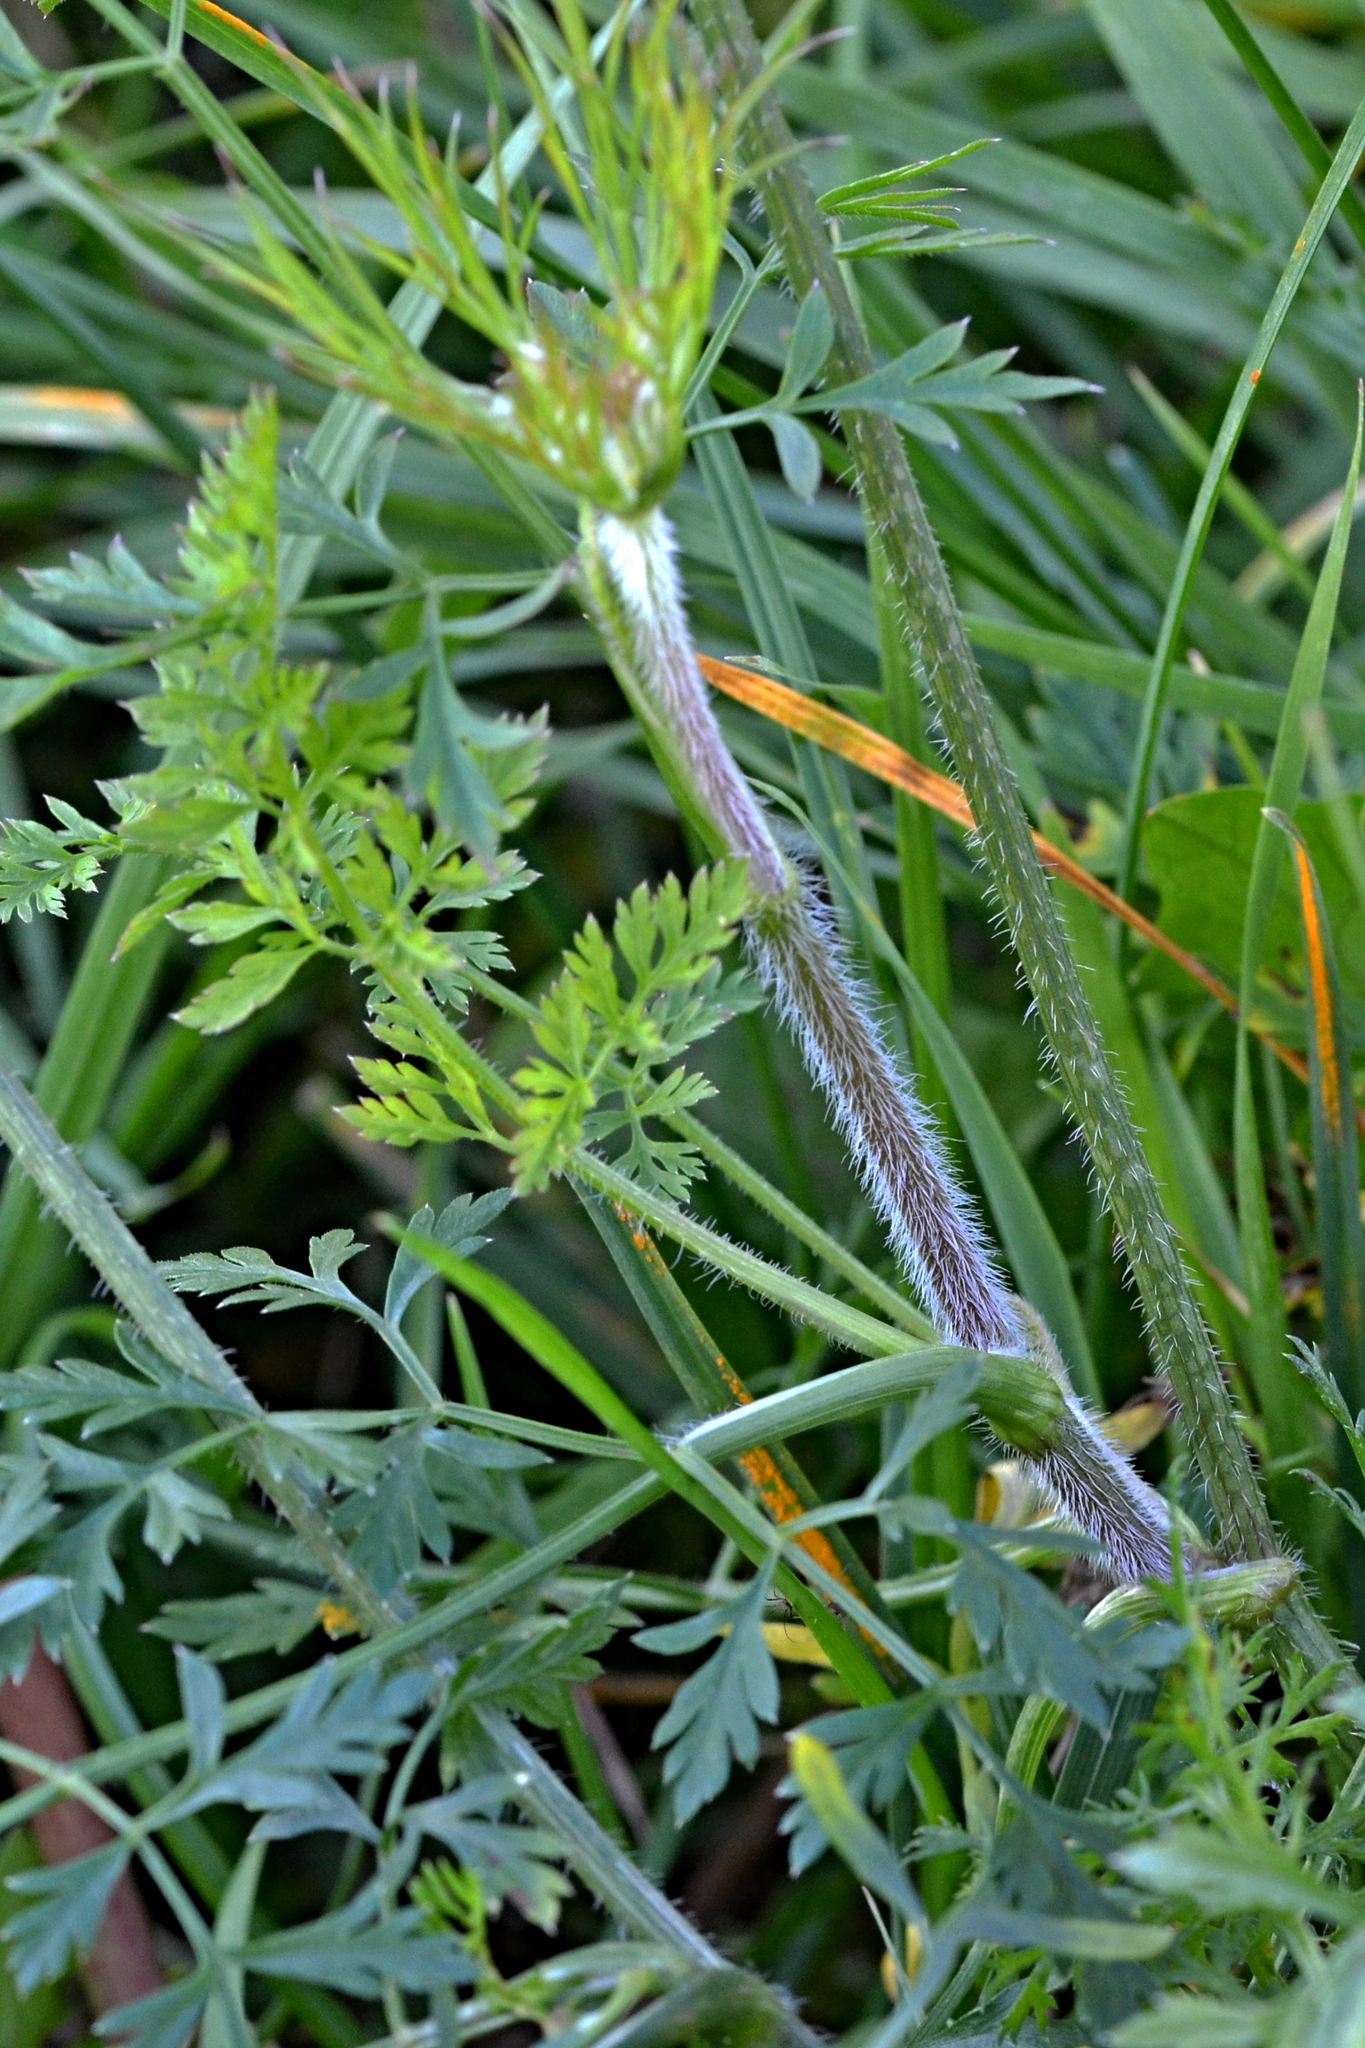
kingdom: Plantae
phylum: Tracheophyta
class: Magnoliopsida
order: Apiales
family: Apiaceae
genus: Daucus
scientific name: Daucus carota
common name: Wild carrot
